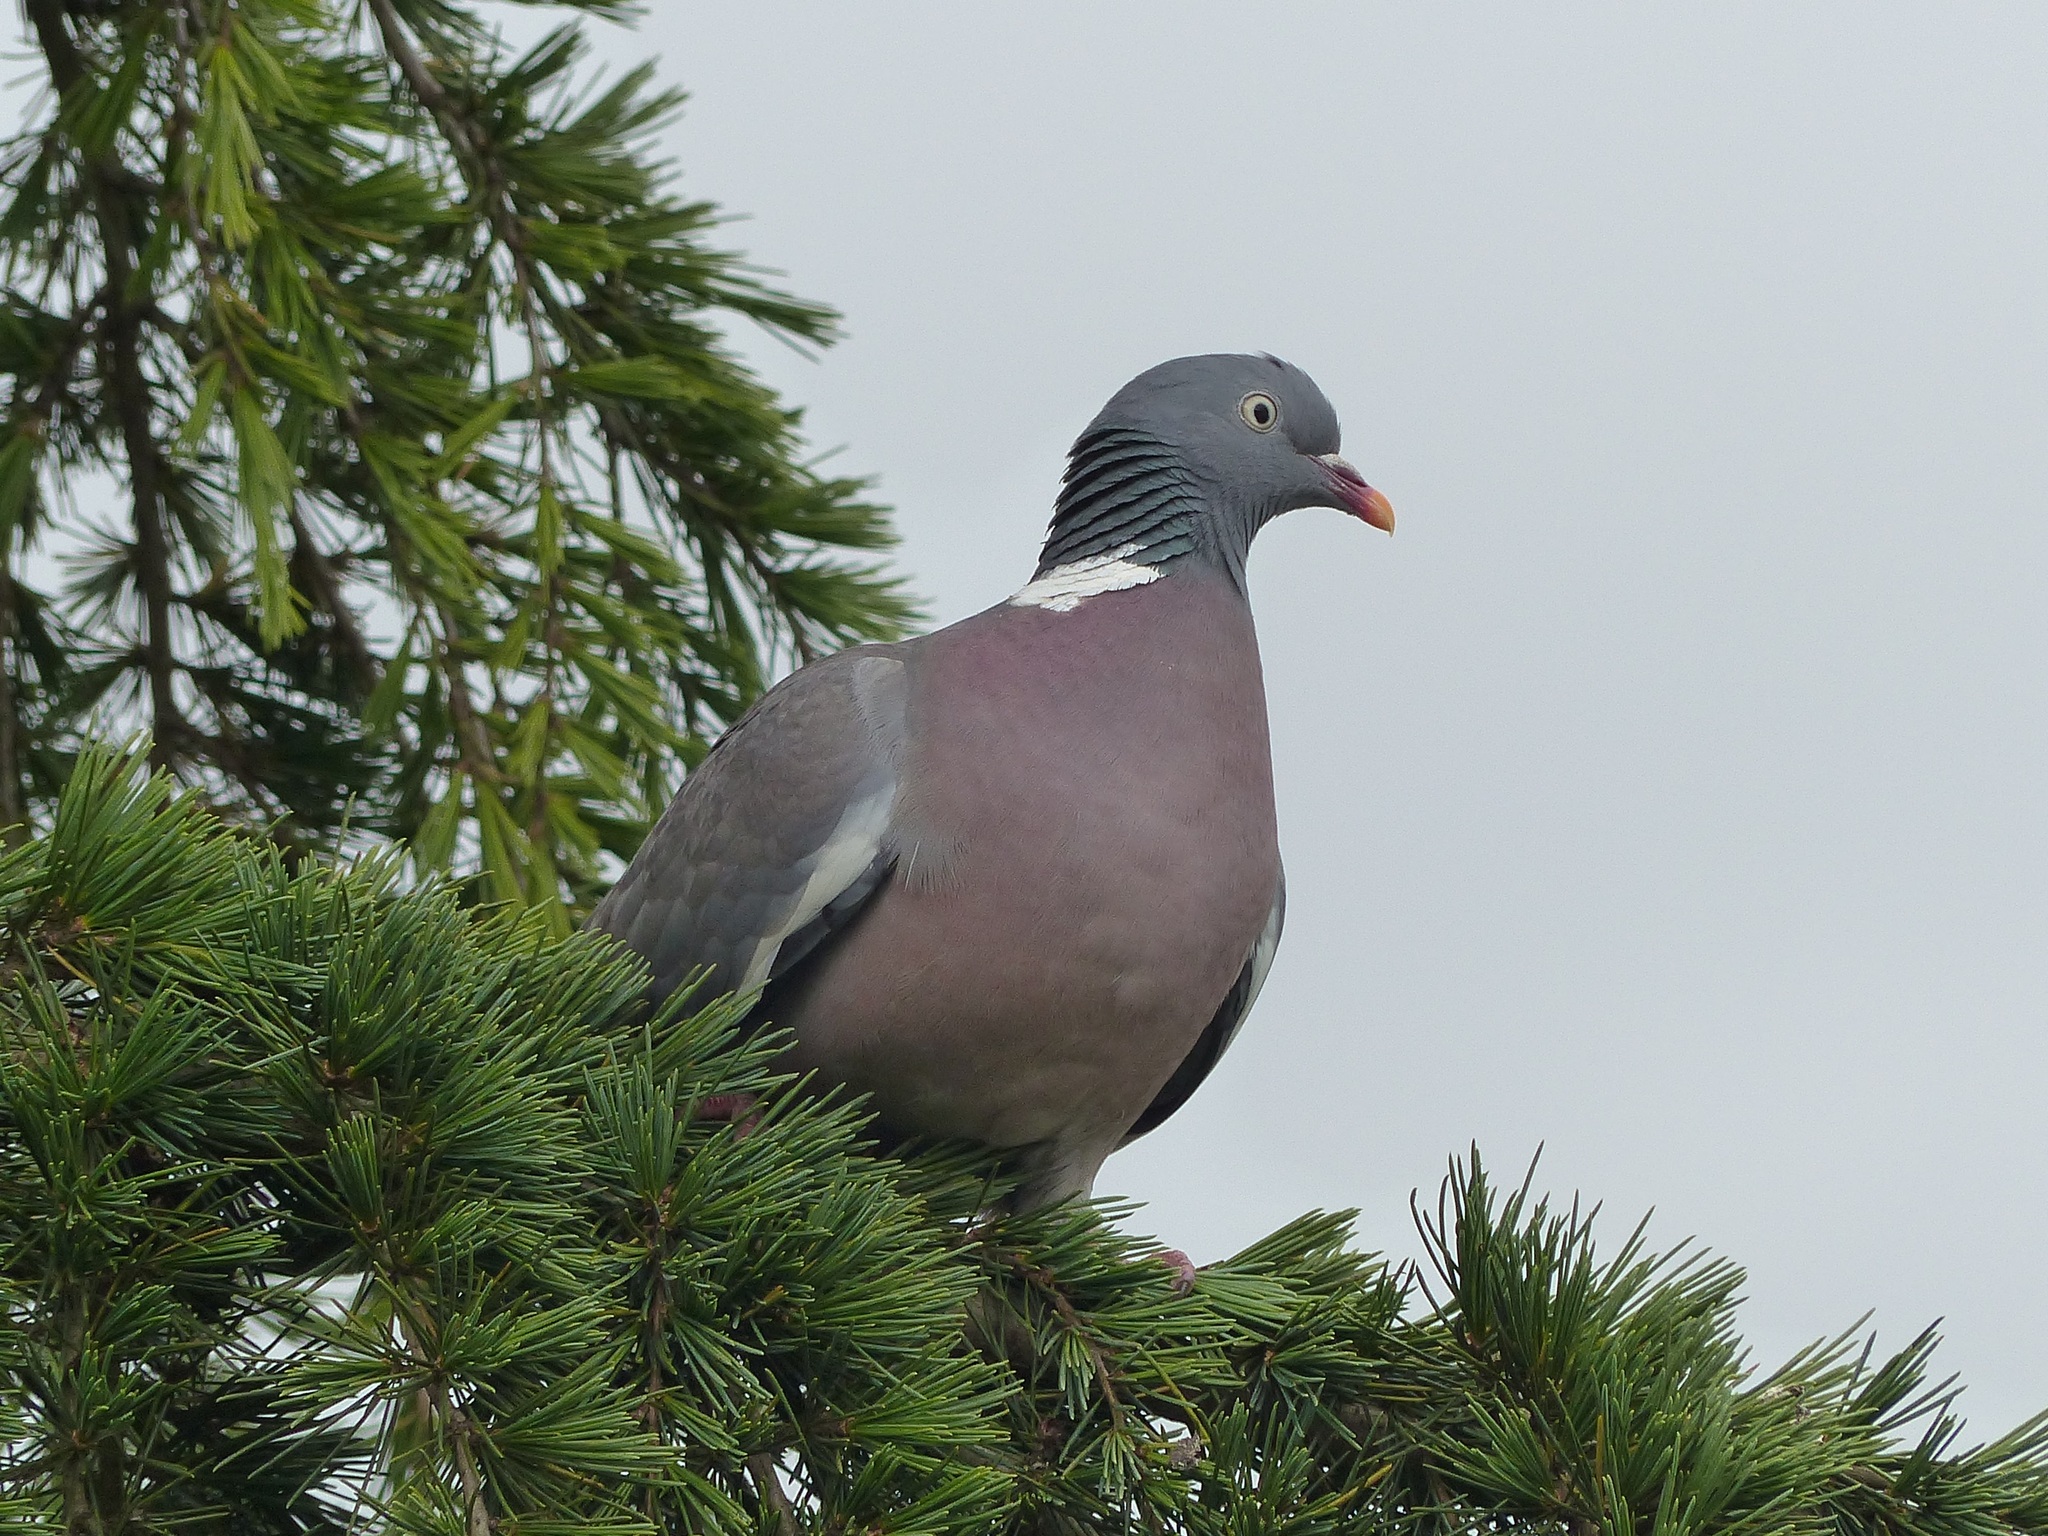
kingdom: Animalia
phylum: Chordata
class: Aves
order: Columbiformes
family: Columbidae
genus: Columba
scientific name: Columba palumbus
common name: Common wood pigeon
